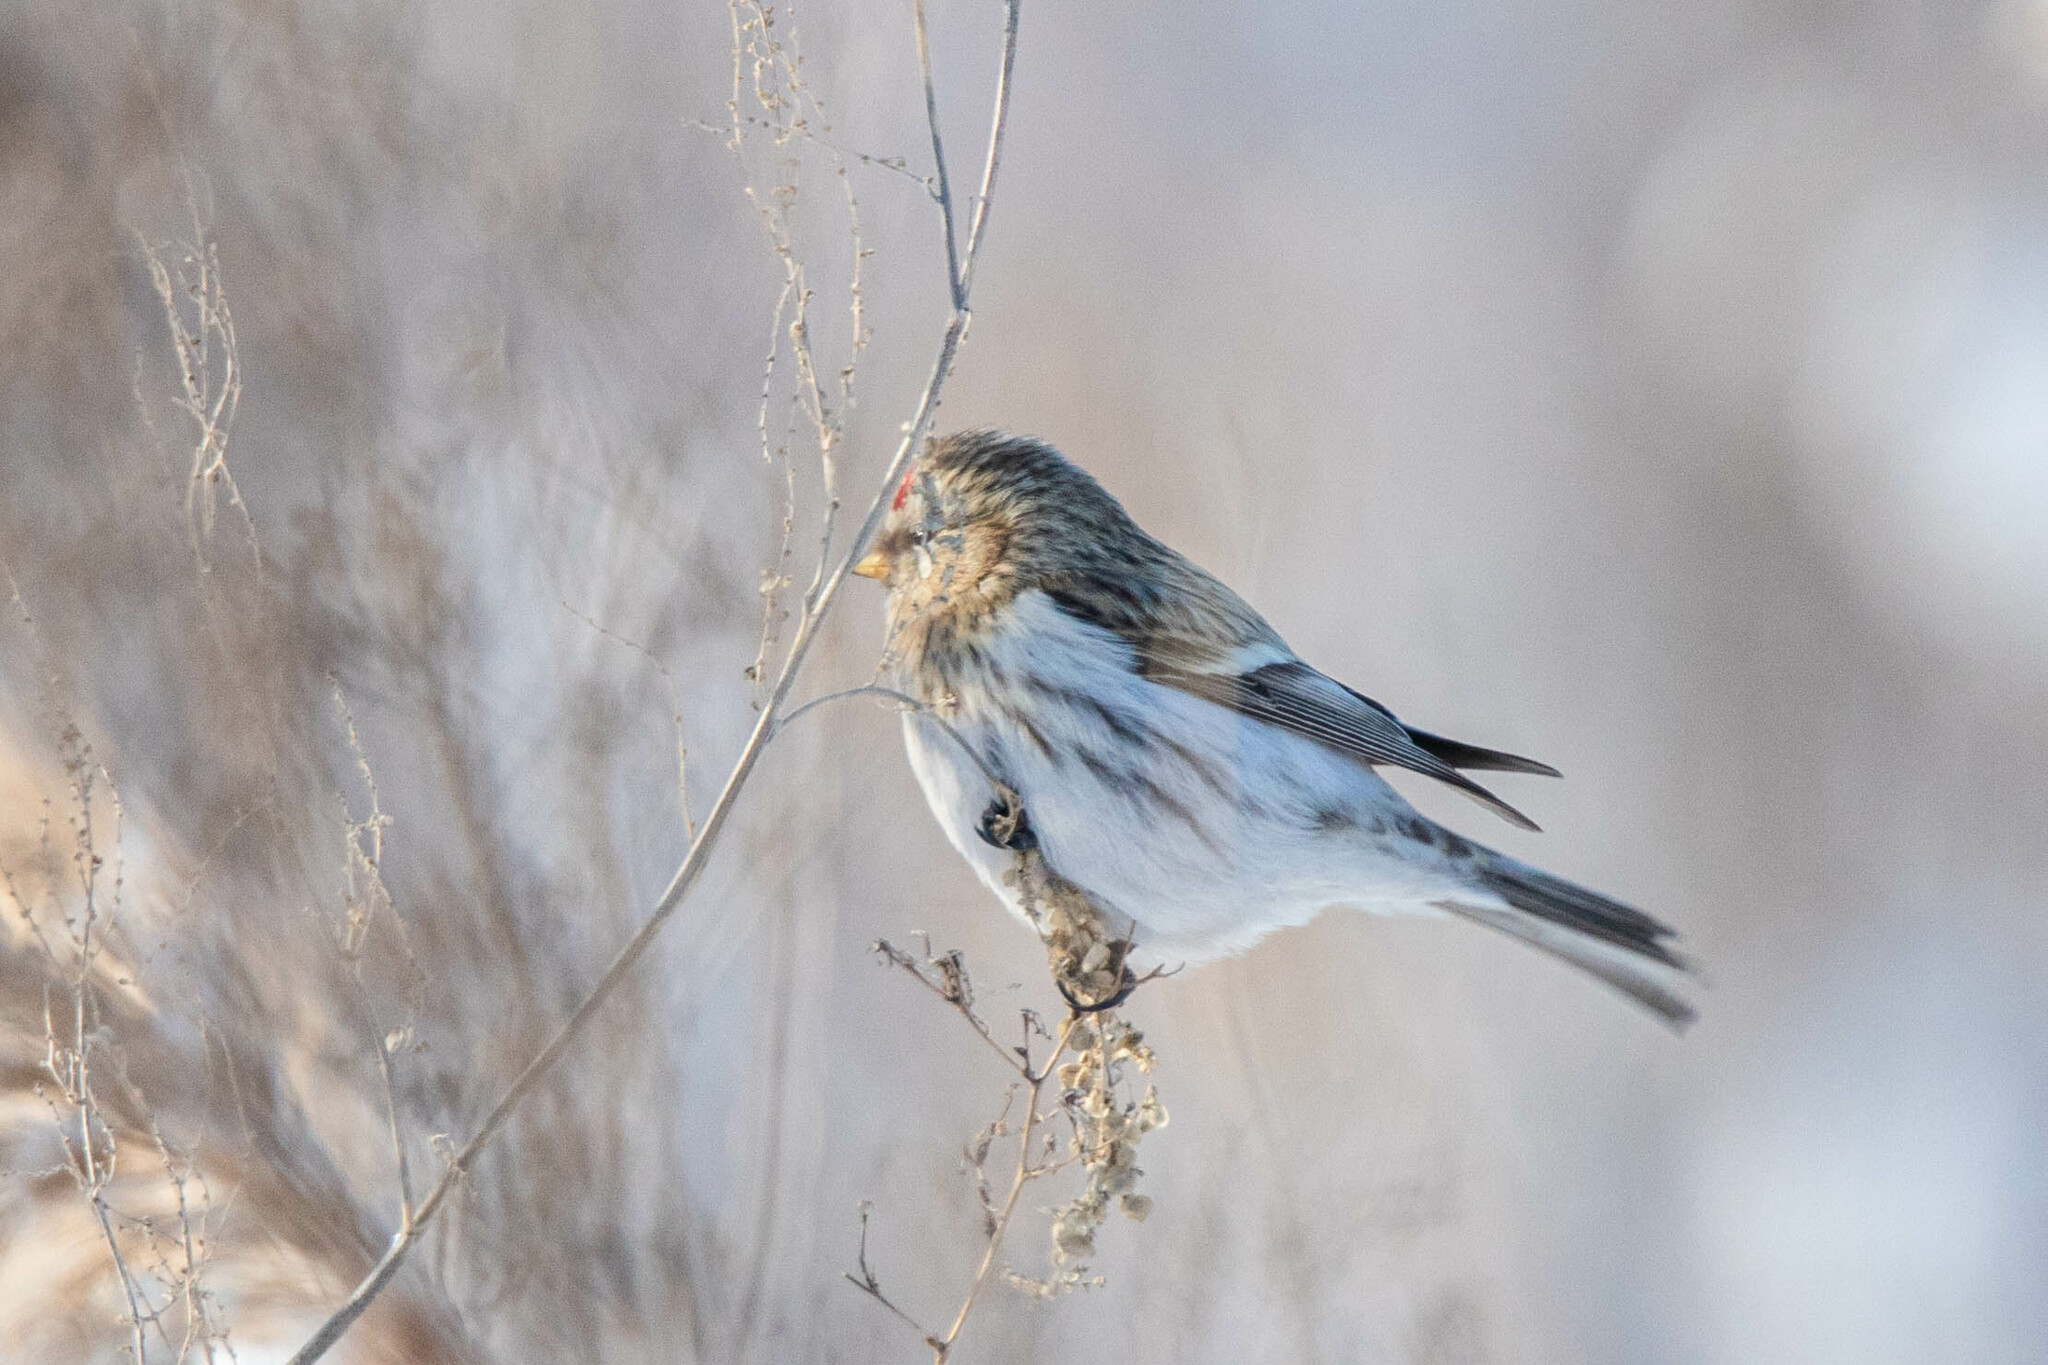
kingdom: Animalia
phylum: Chordata
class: Aves
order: Passeriformes
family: Fringillidae
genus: Acanthis
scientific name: Acanthis hornemanni
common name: Arctic redpoll
